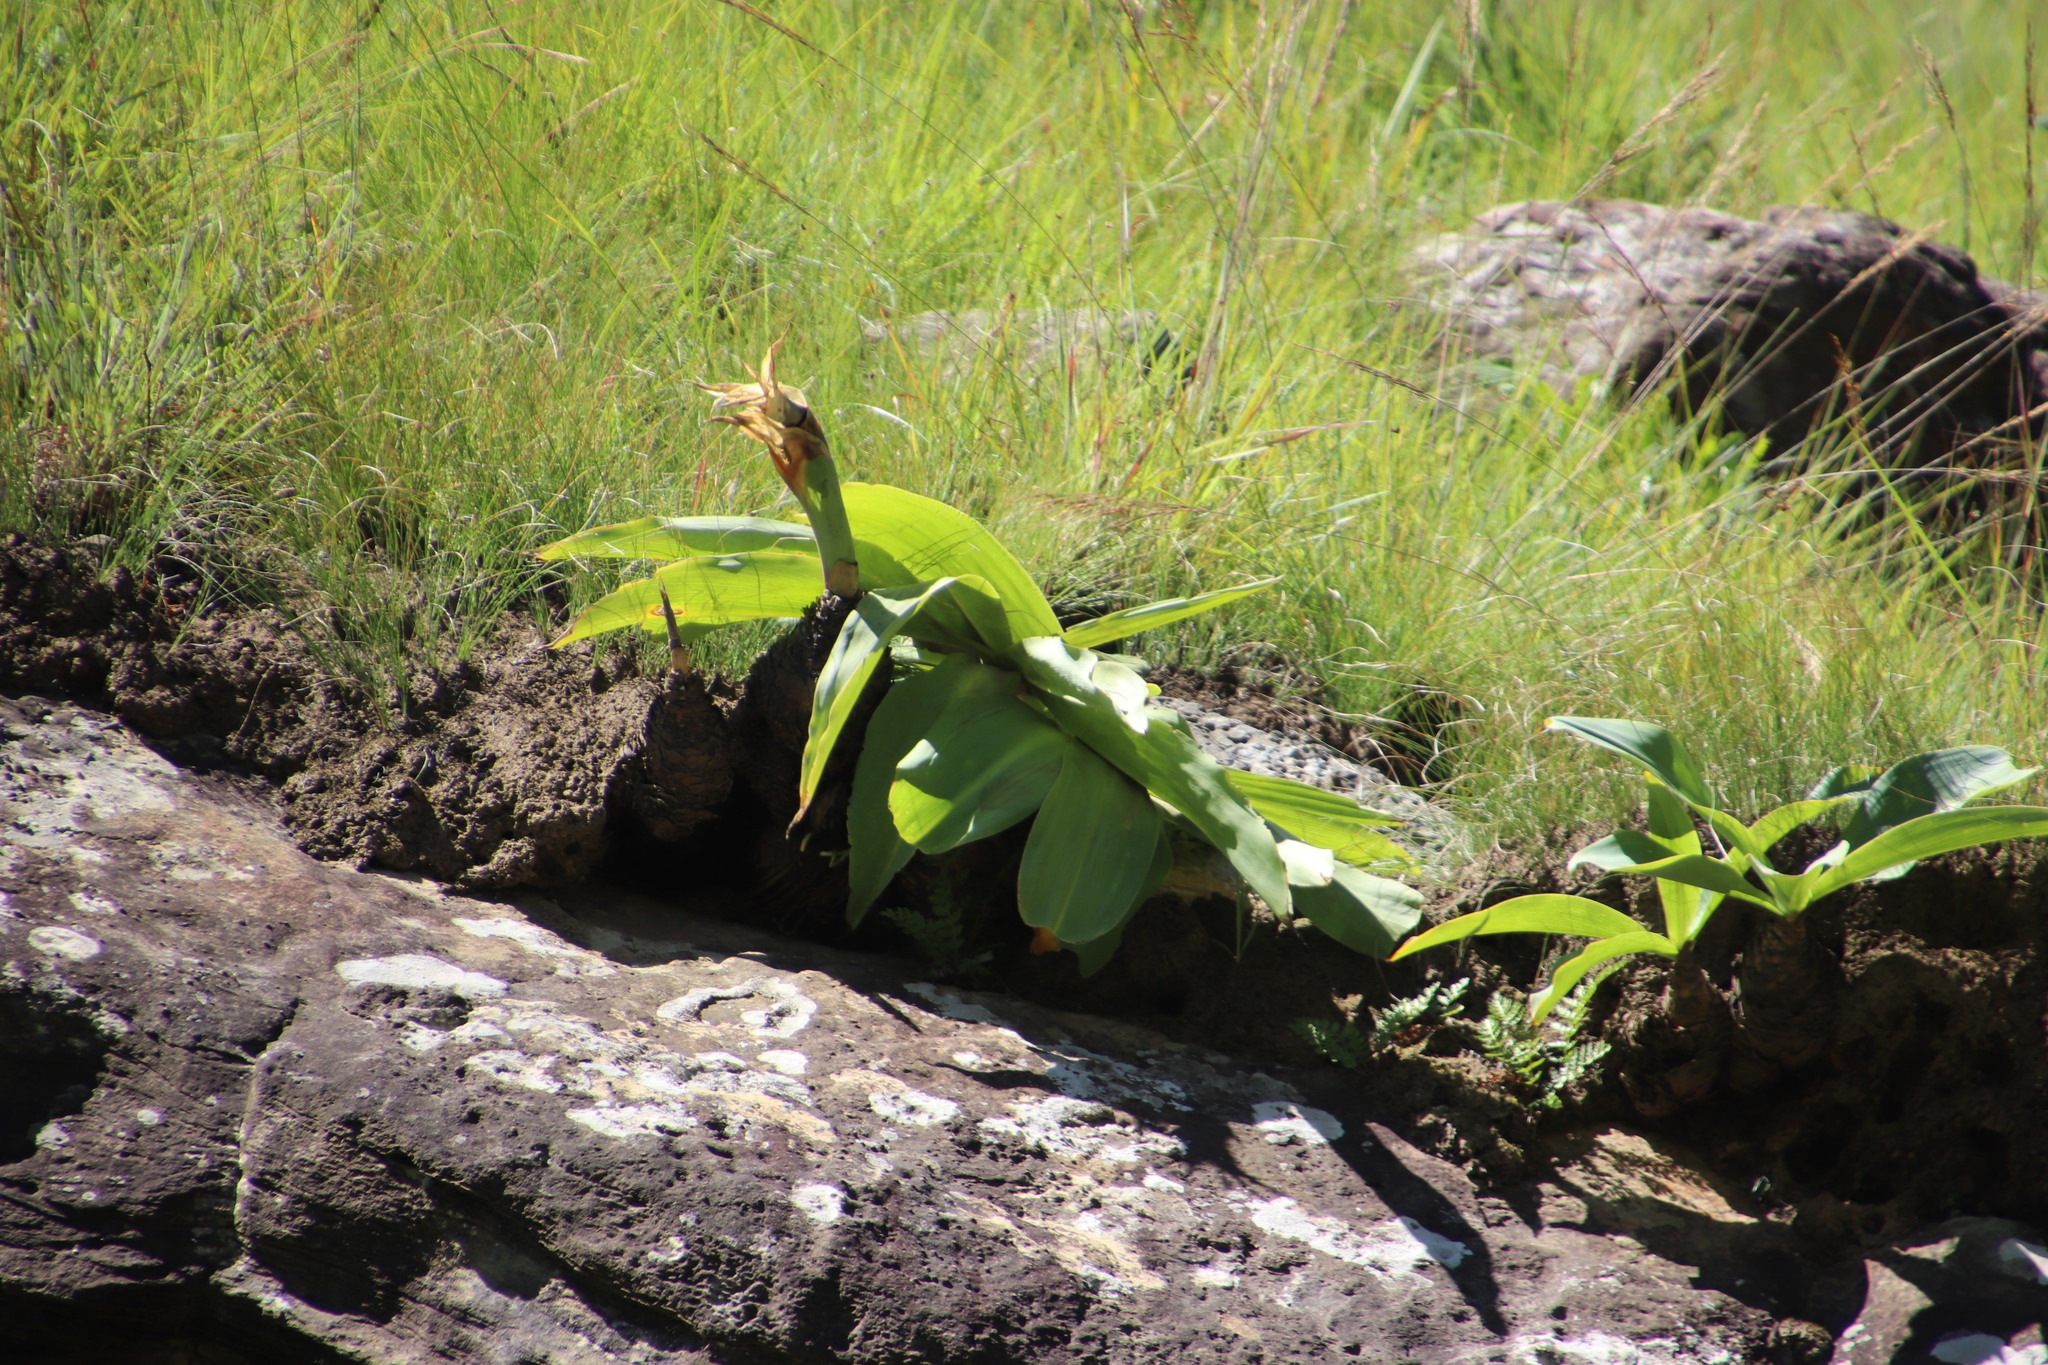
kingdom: Plantae
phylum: Tracheophyta
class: Liliopsida
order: Asparagales
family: Asparagaceae
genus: Eucomis
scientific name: Eucomis autumnalis
